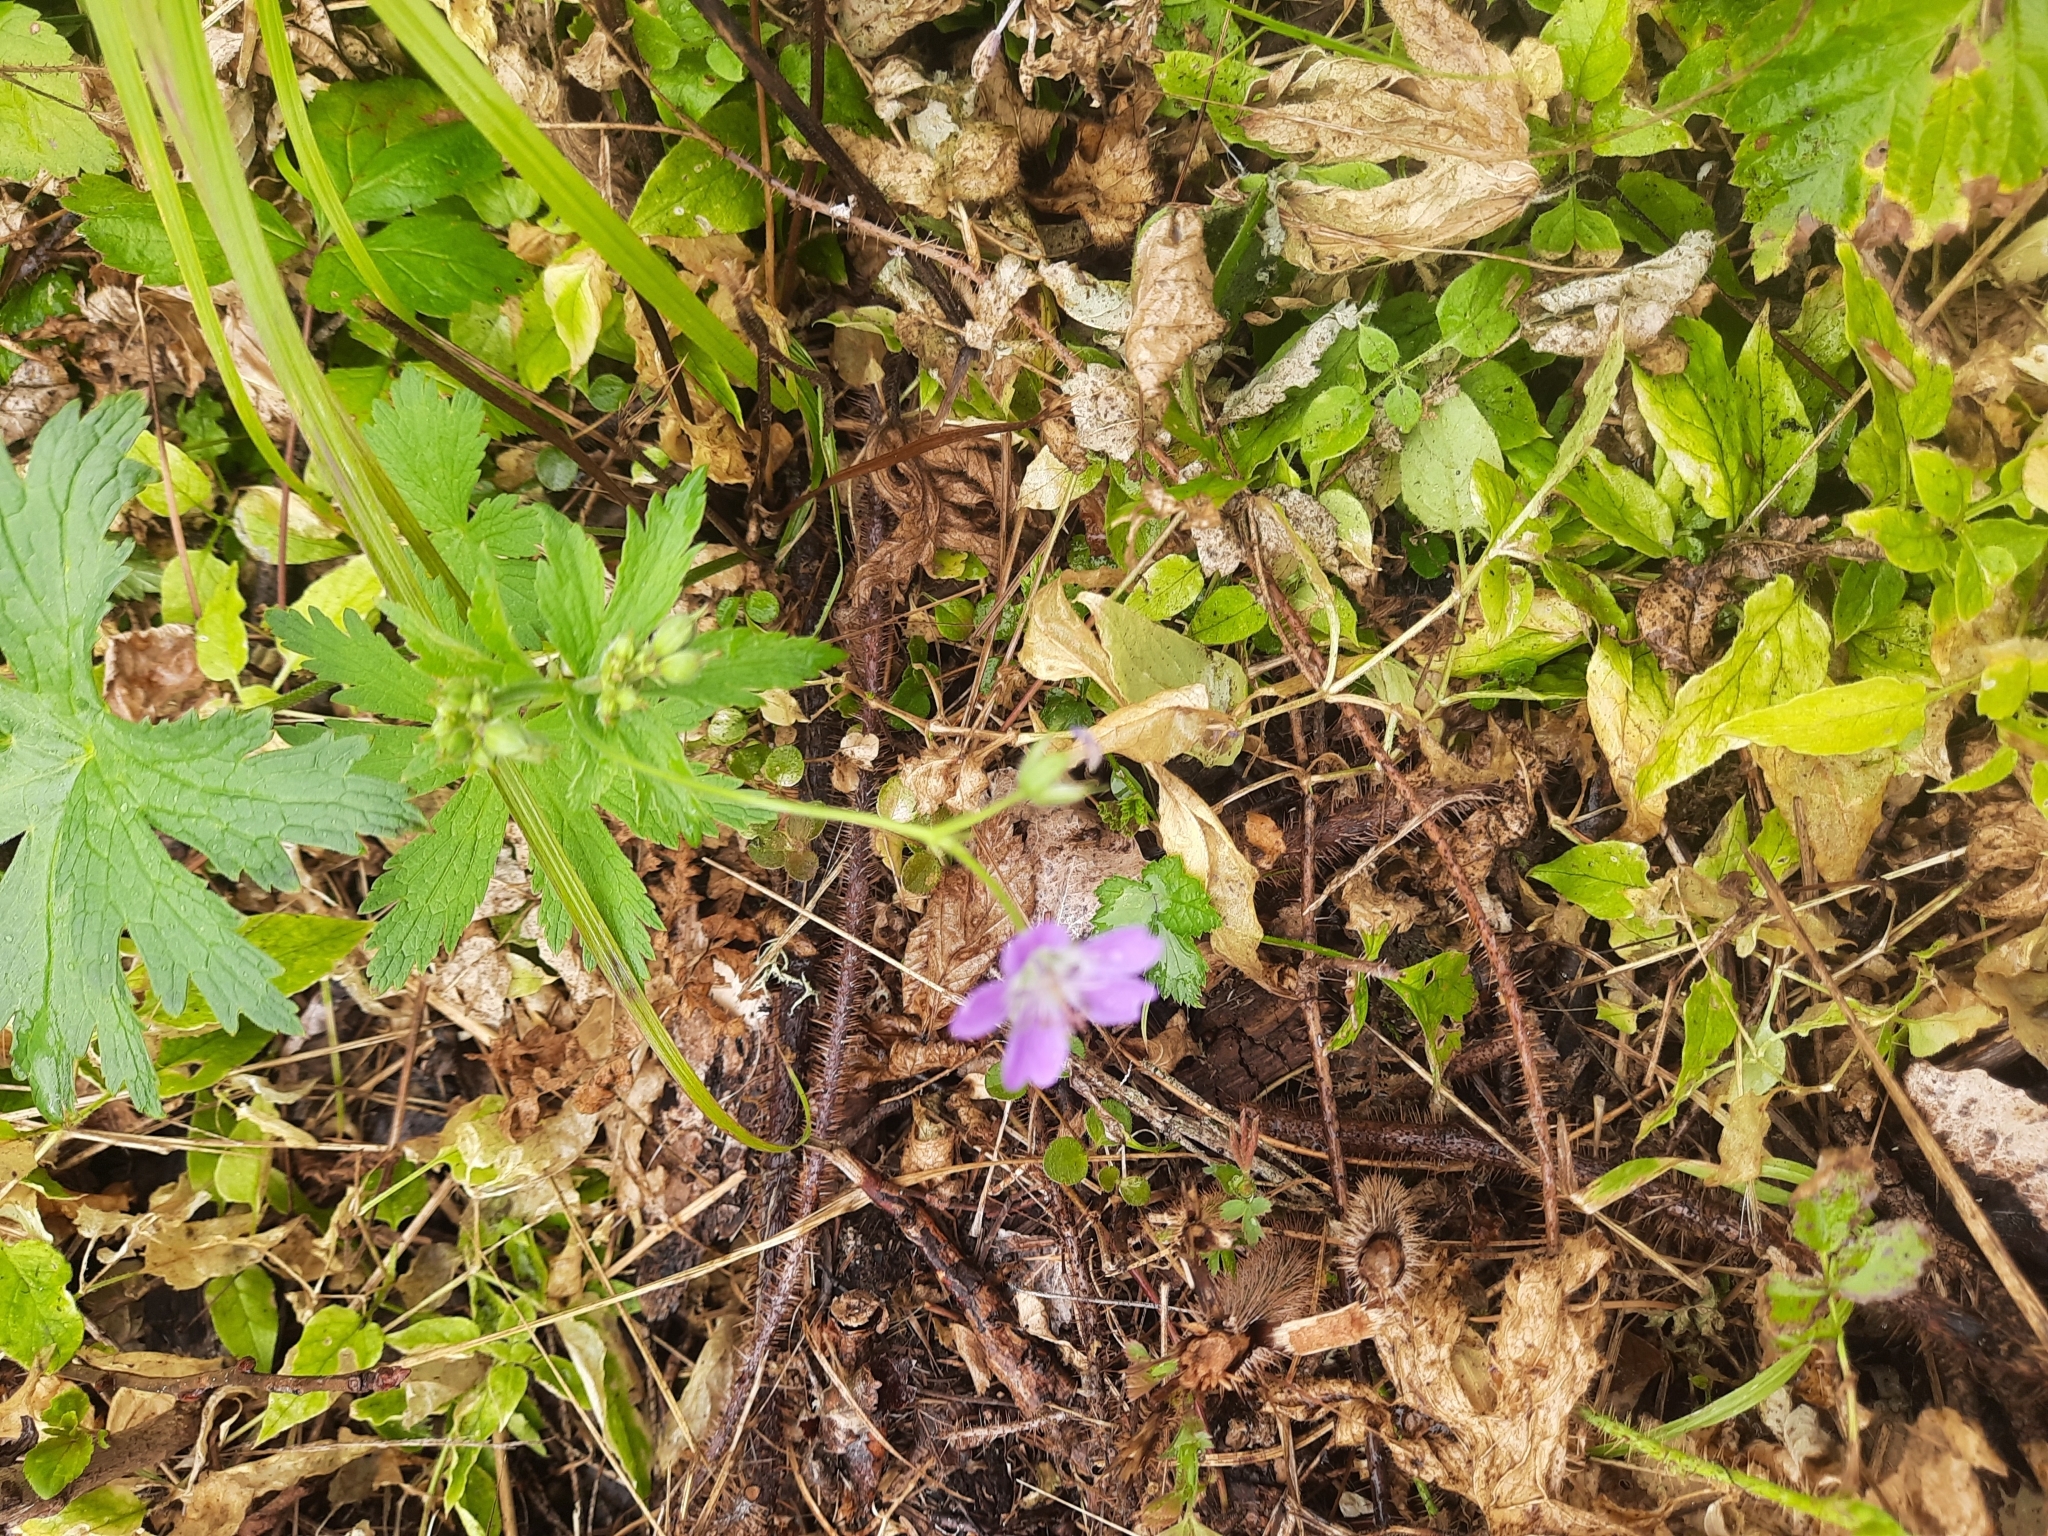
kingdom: Plantae
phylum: Tracheophyta
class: Magnoliopsida
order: Geraniales
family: Geraniaceae
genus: Geranium
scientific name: Geranium sylvaticum
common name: Wood crane's-bill
